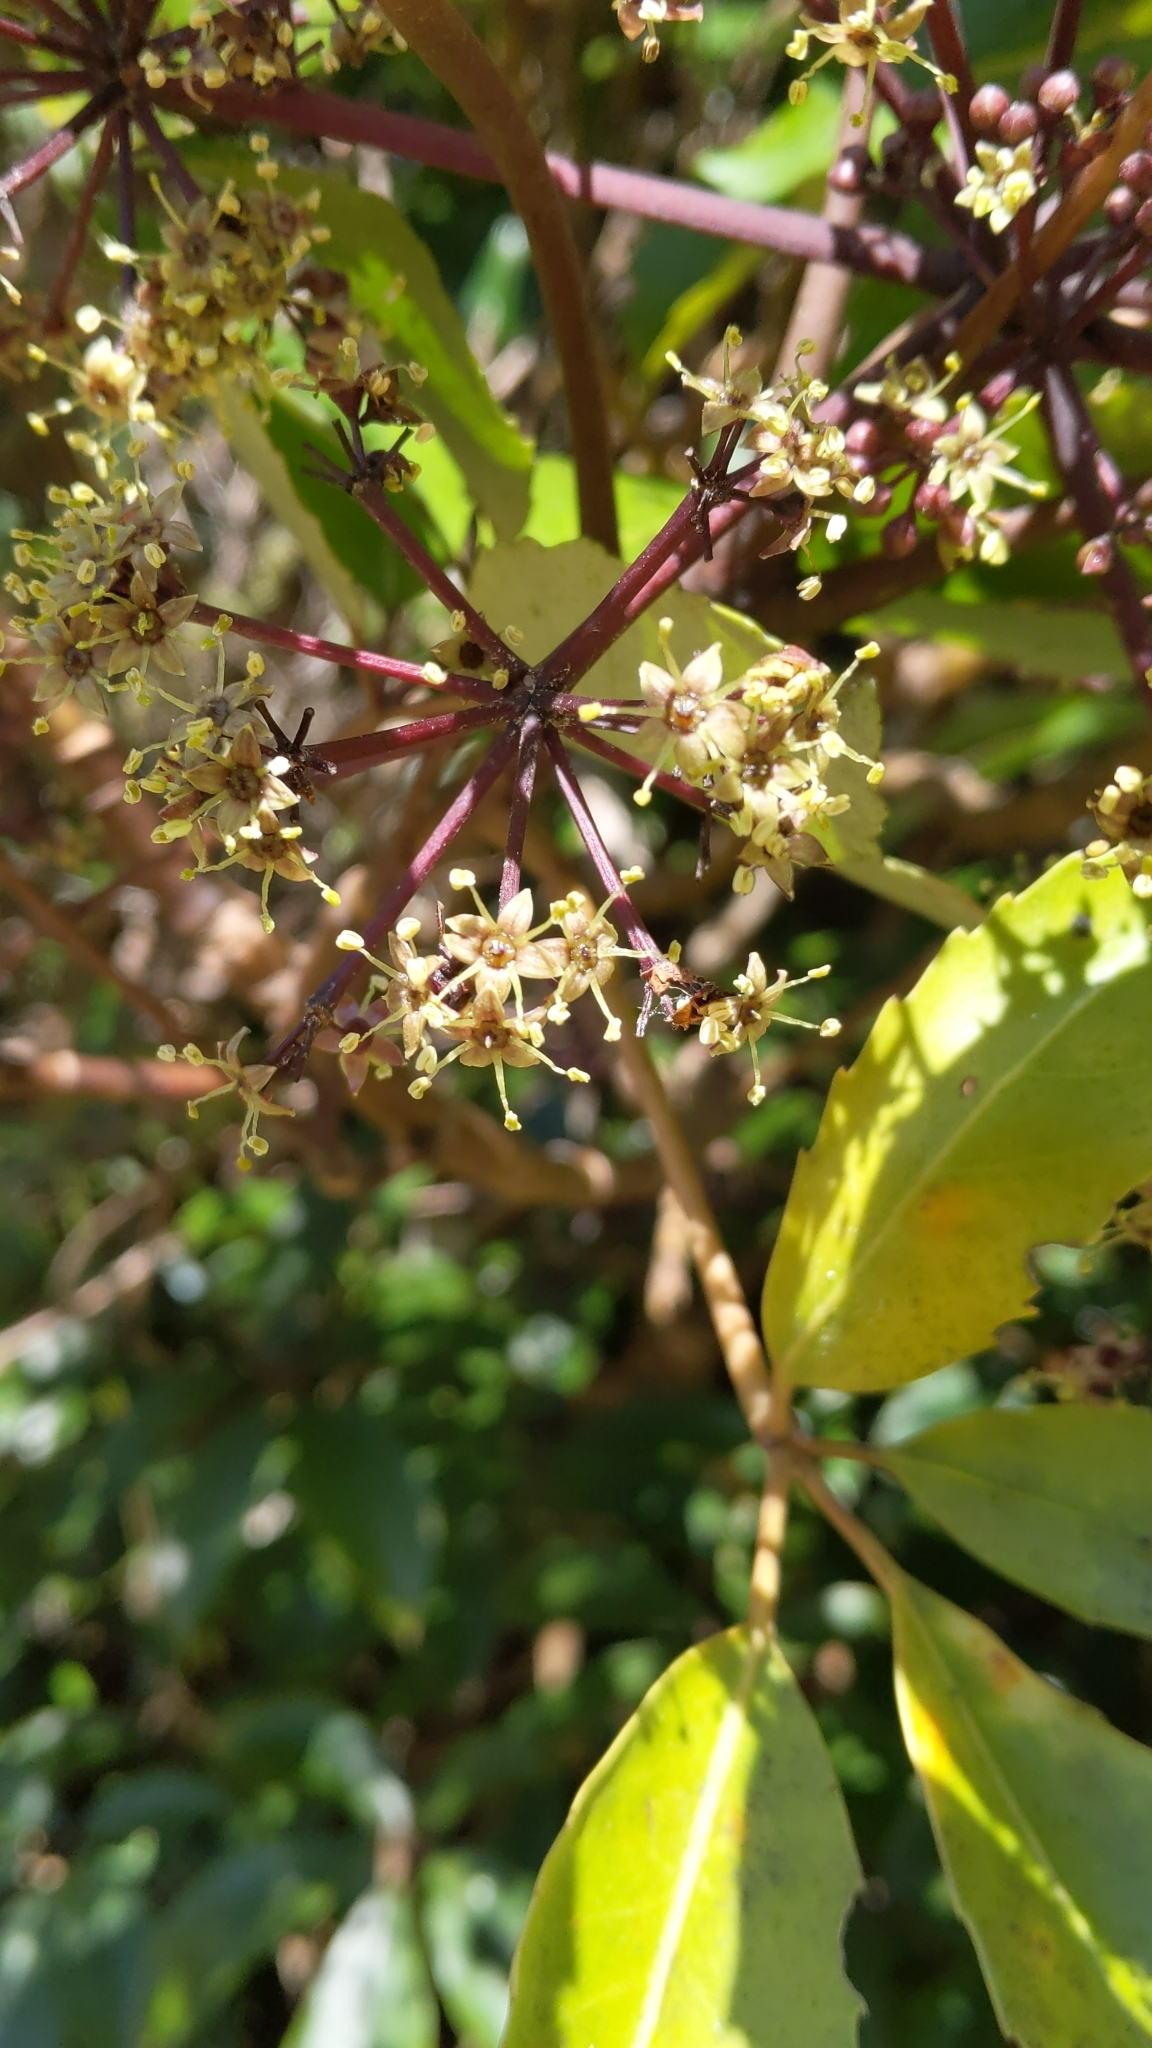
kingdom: Plantae
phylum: Tracheophyta
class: Magnoliopsida
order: Apiales
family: Araliaceae
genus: Neopanax
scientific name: Neopanax arboreus
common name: Five-fingers
